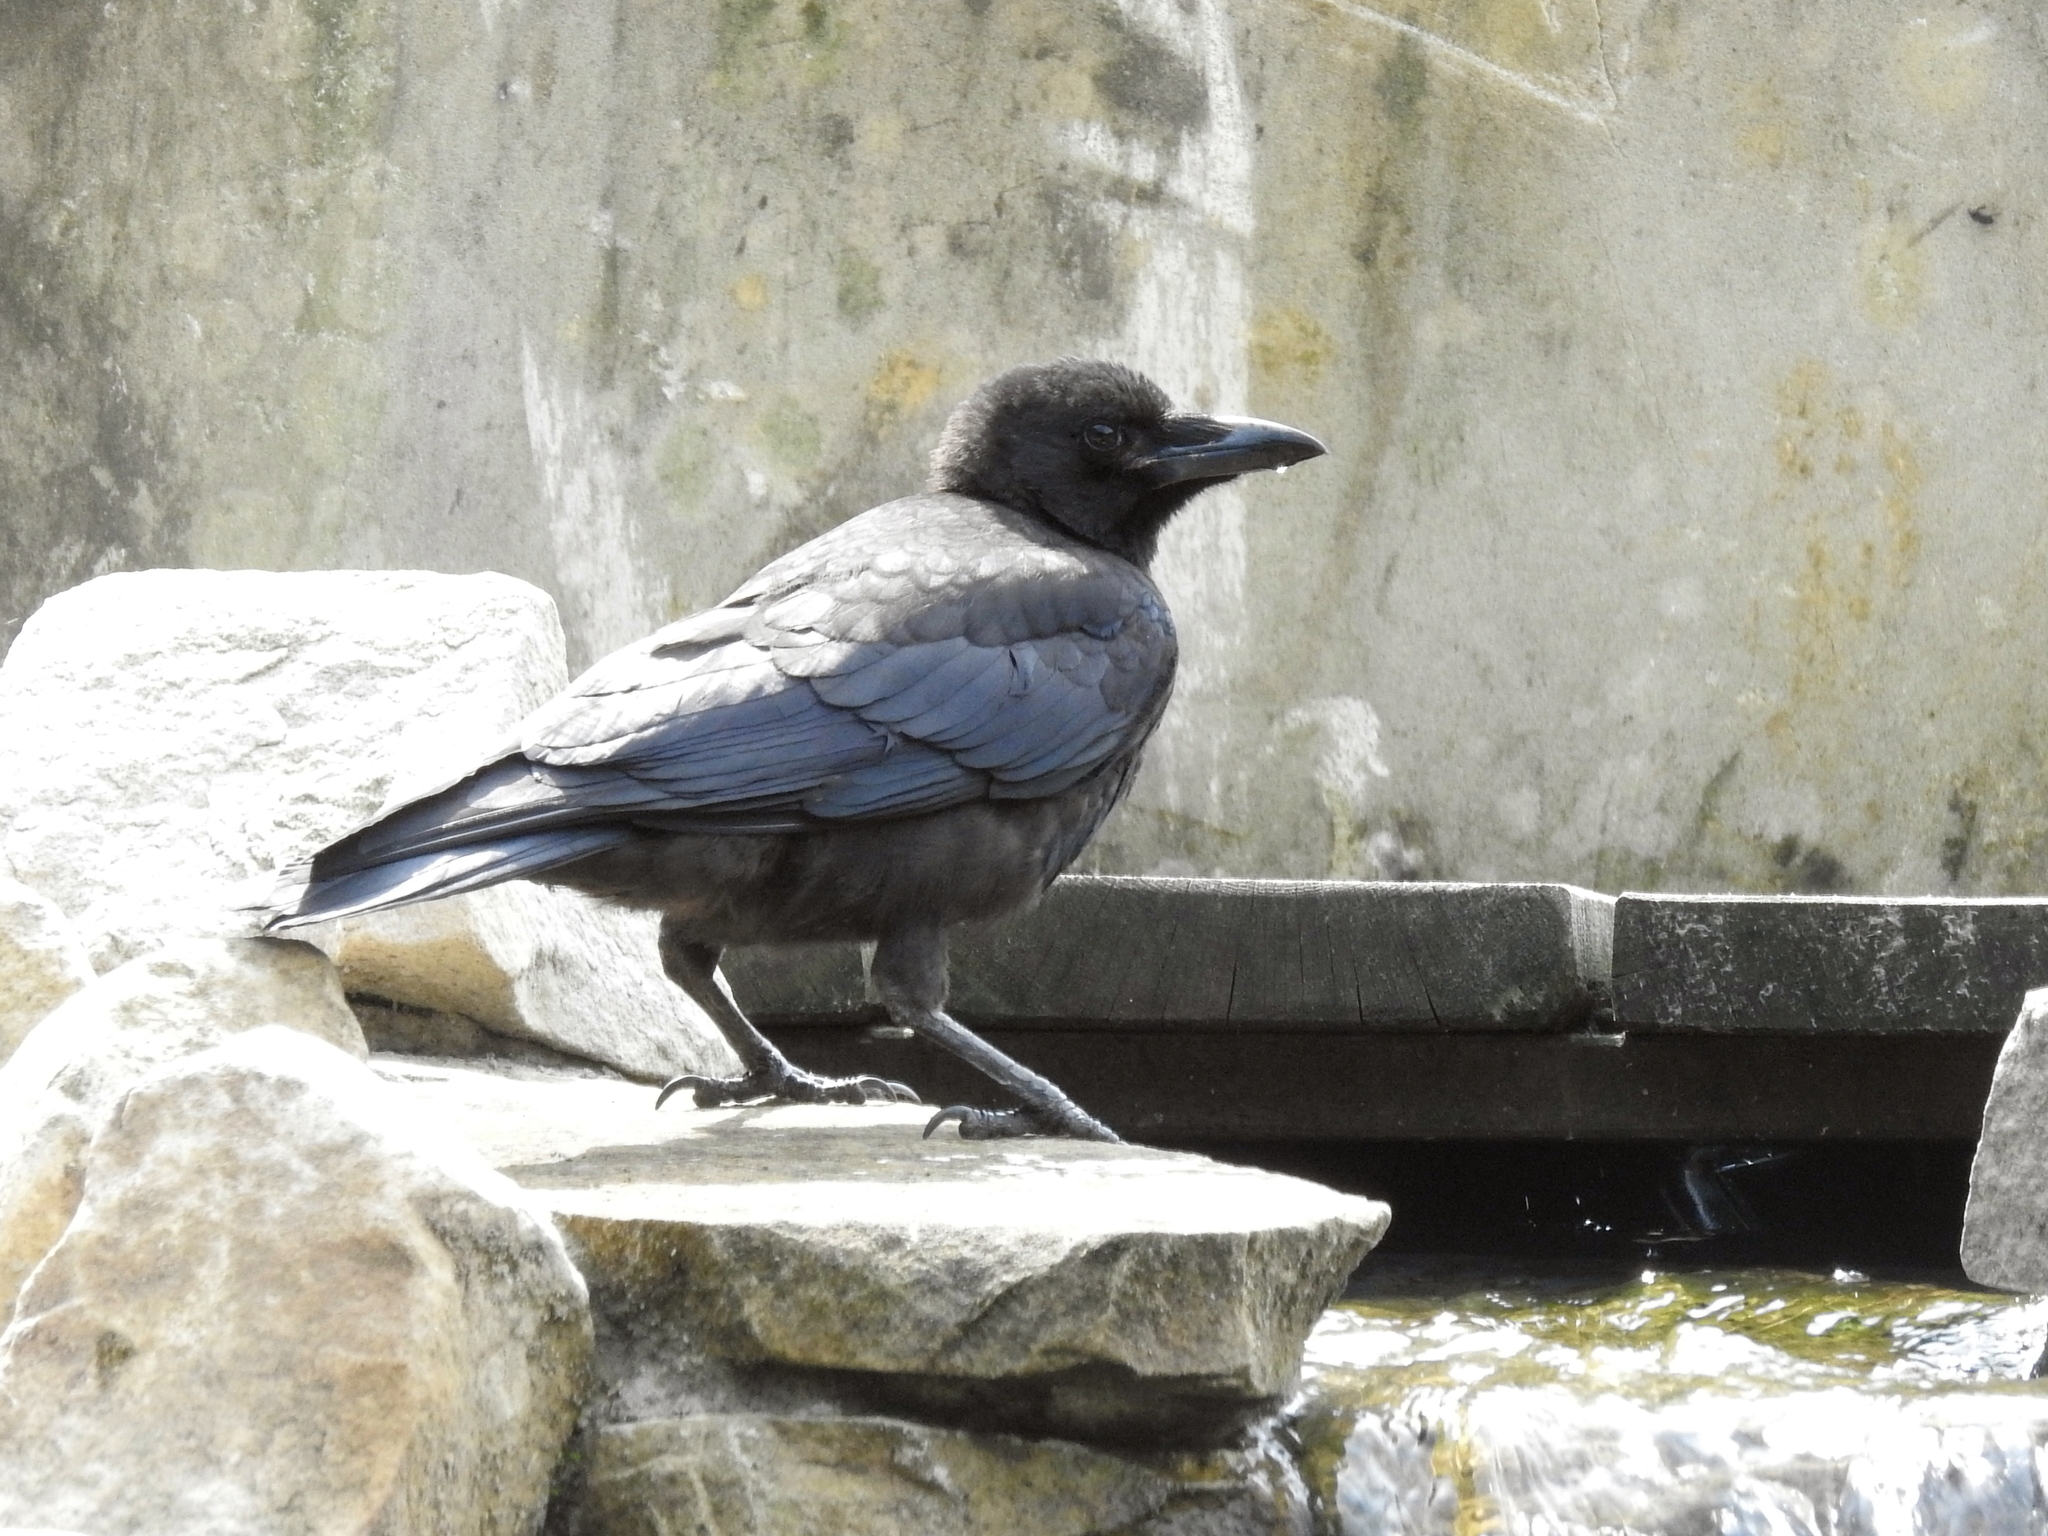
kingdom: Animalia
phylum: Chordata
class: Aves
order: Passeriformes
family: Corvidae
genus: Corvus
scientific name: Corvus corone
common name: Carrion crow
